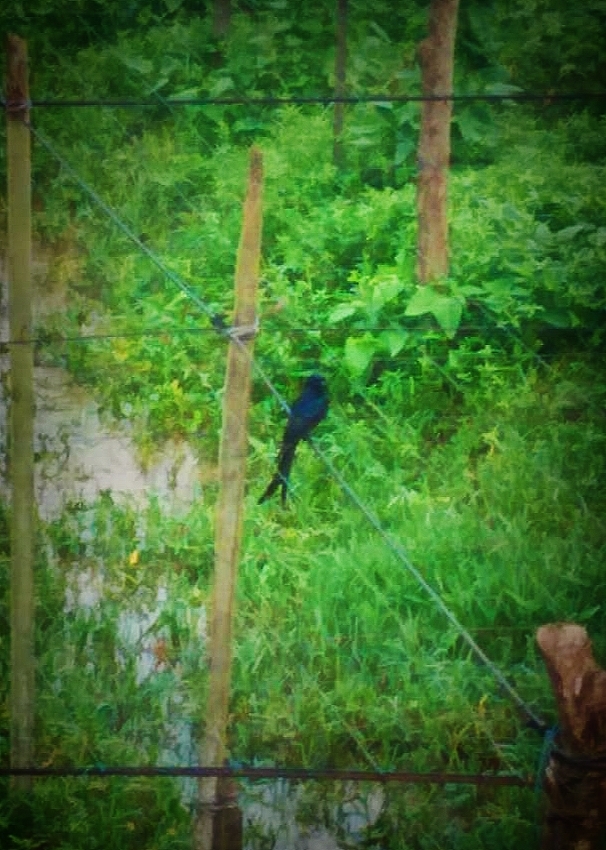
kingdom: Animalia
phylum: Chordata
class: Aves
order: Passeriformes
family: Dicruridae
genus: Dicrurus
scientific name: Dicrurus macrocercus
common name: Black drongo
